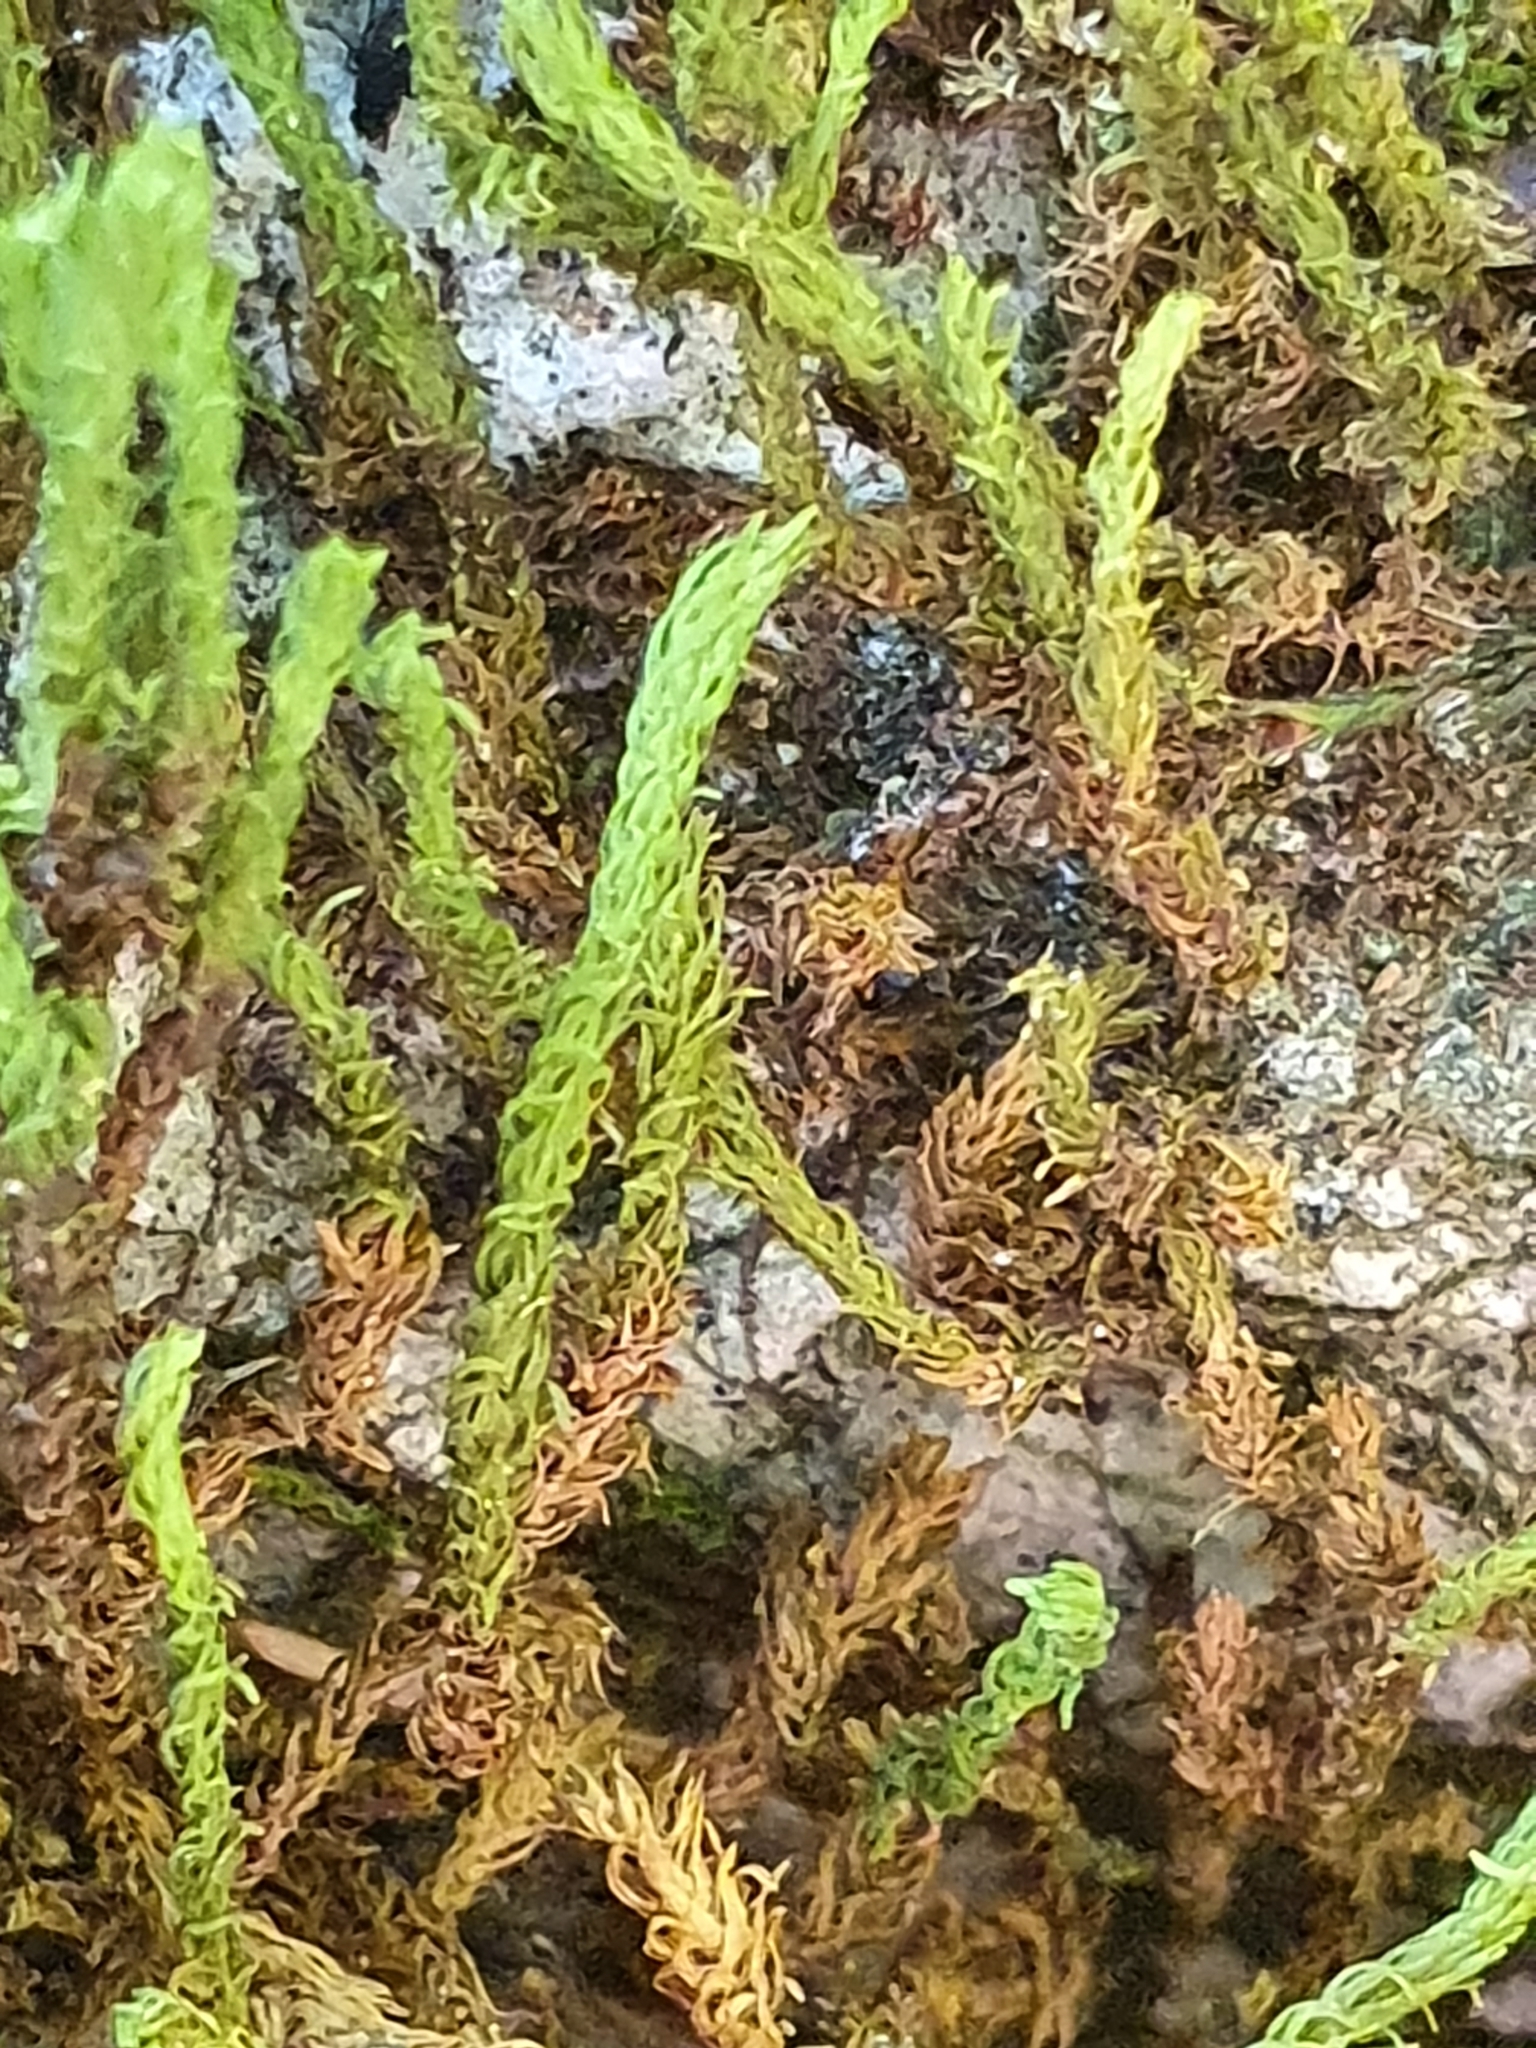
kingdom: Plantae
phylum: Bryophyta
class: Bryopsida
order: Hypnales
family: Anomodontaceae
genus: Anomodon
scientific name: Anomodon viticulosus
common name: Tall anomodon
